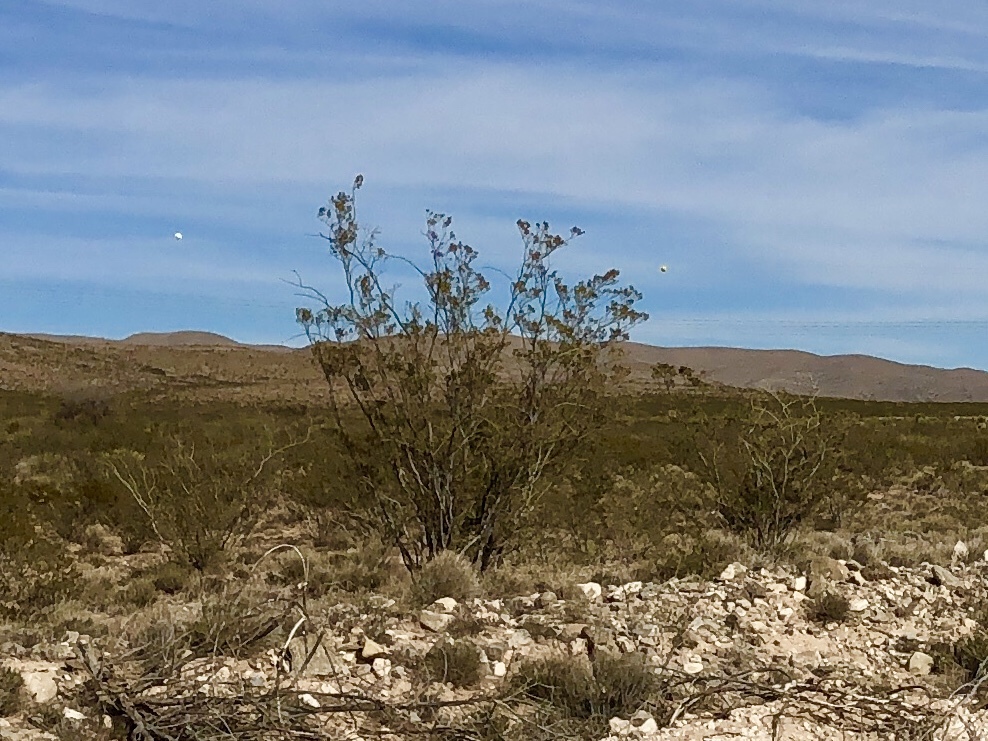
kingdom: Plantae
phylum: Tracheophyta
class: Magnoliopsida
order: Zygophyllales
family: Zygophyllaceae
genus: Larrea
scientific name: Larrea tridentata
